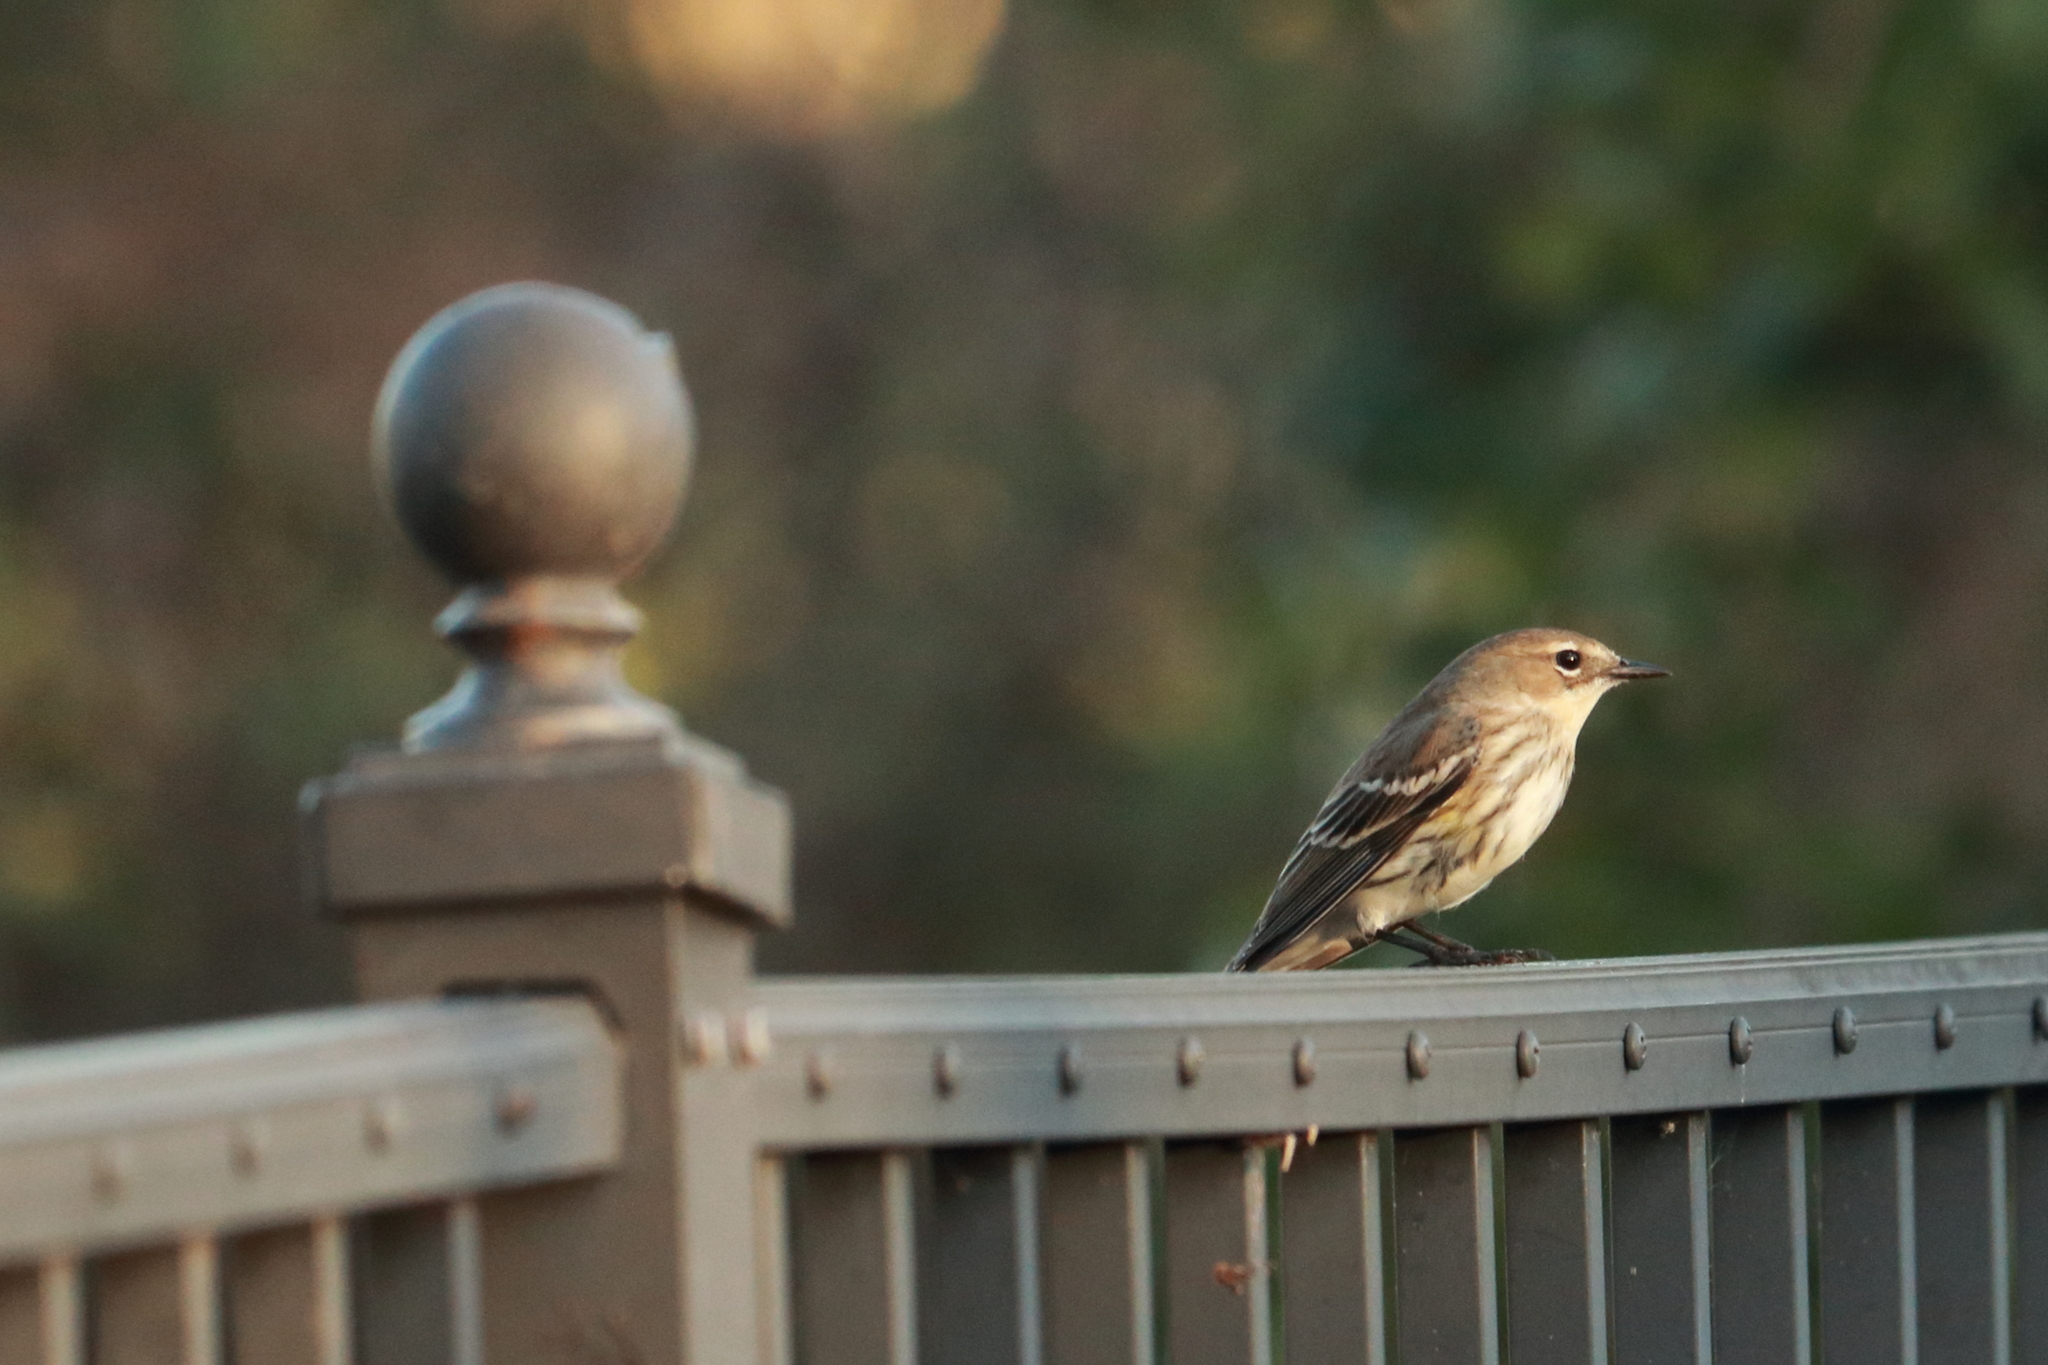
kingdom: Animalia
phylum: Chordata
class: Aves
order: Passeriformes
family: Parulidae
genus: Setophaga
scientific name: Setophaga coronata
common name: Myrtle warbler
